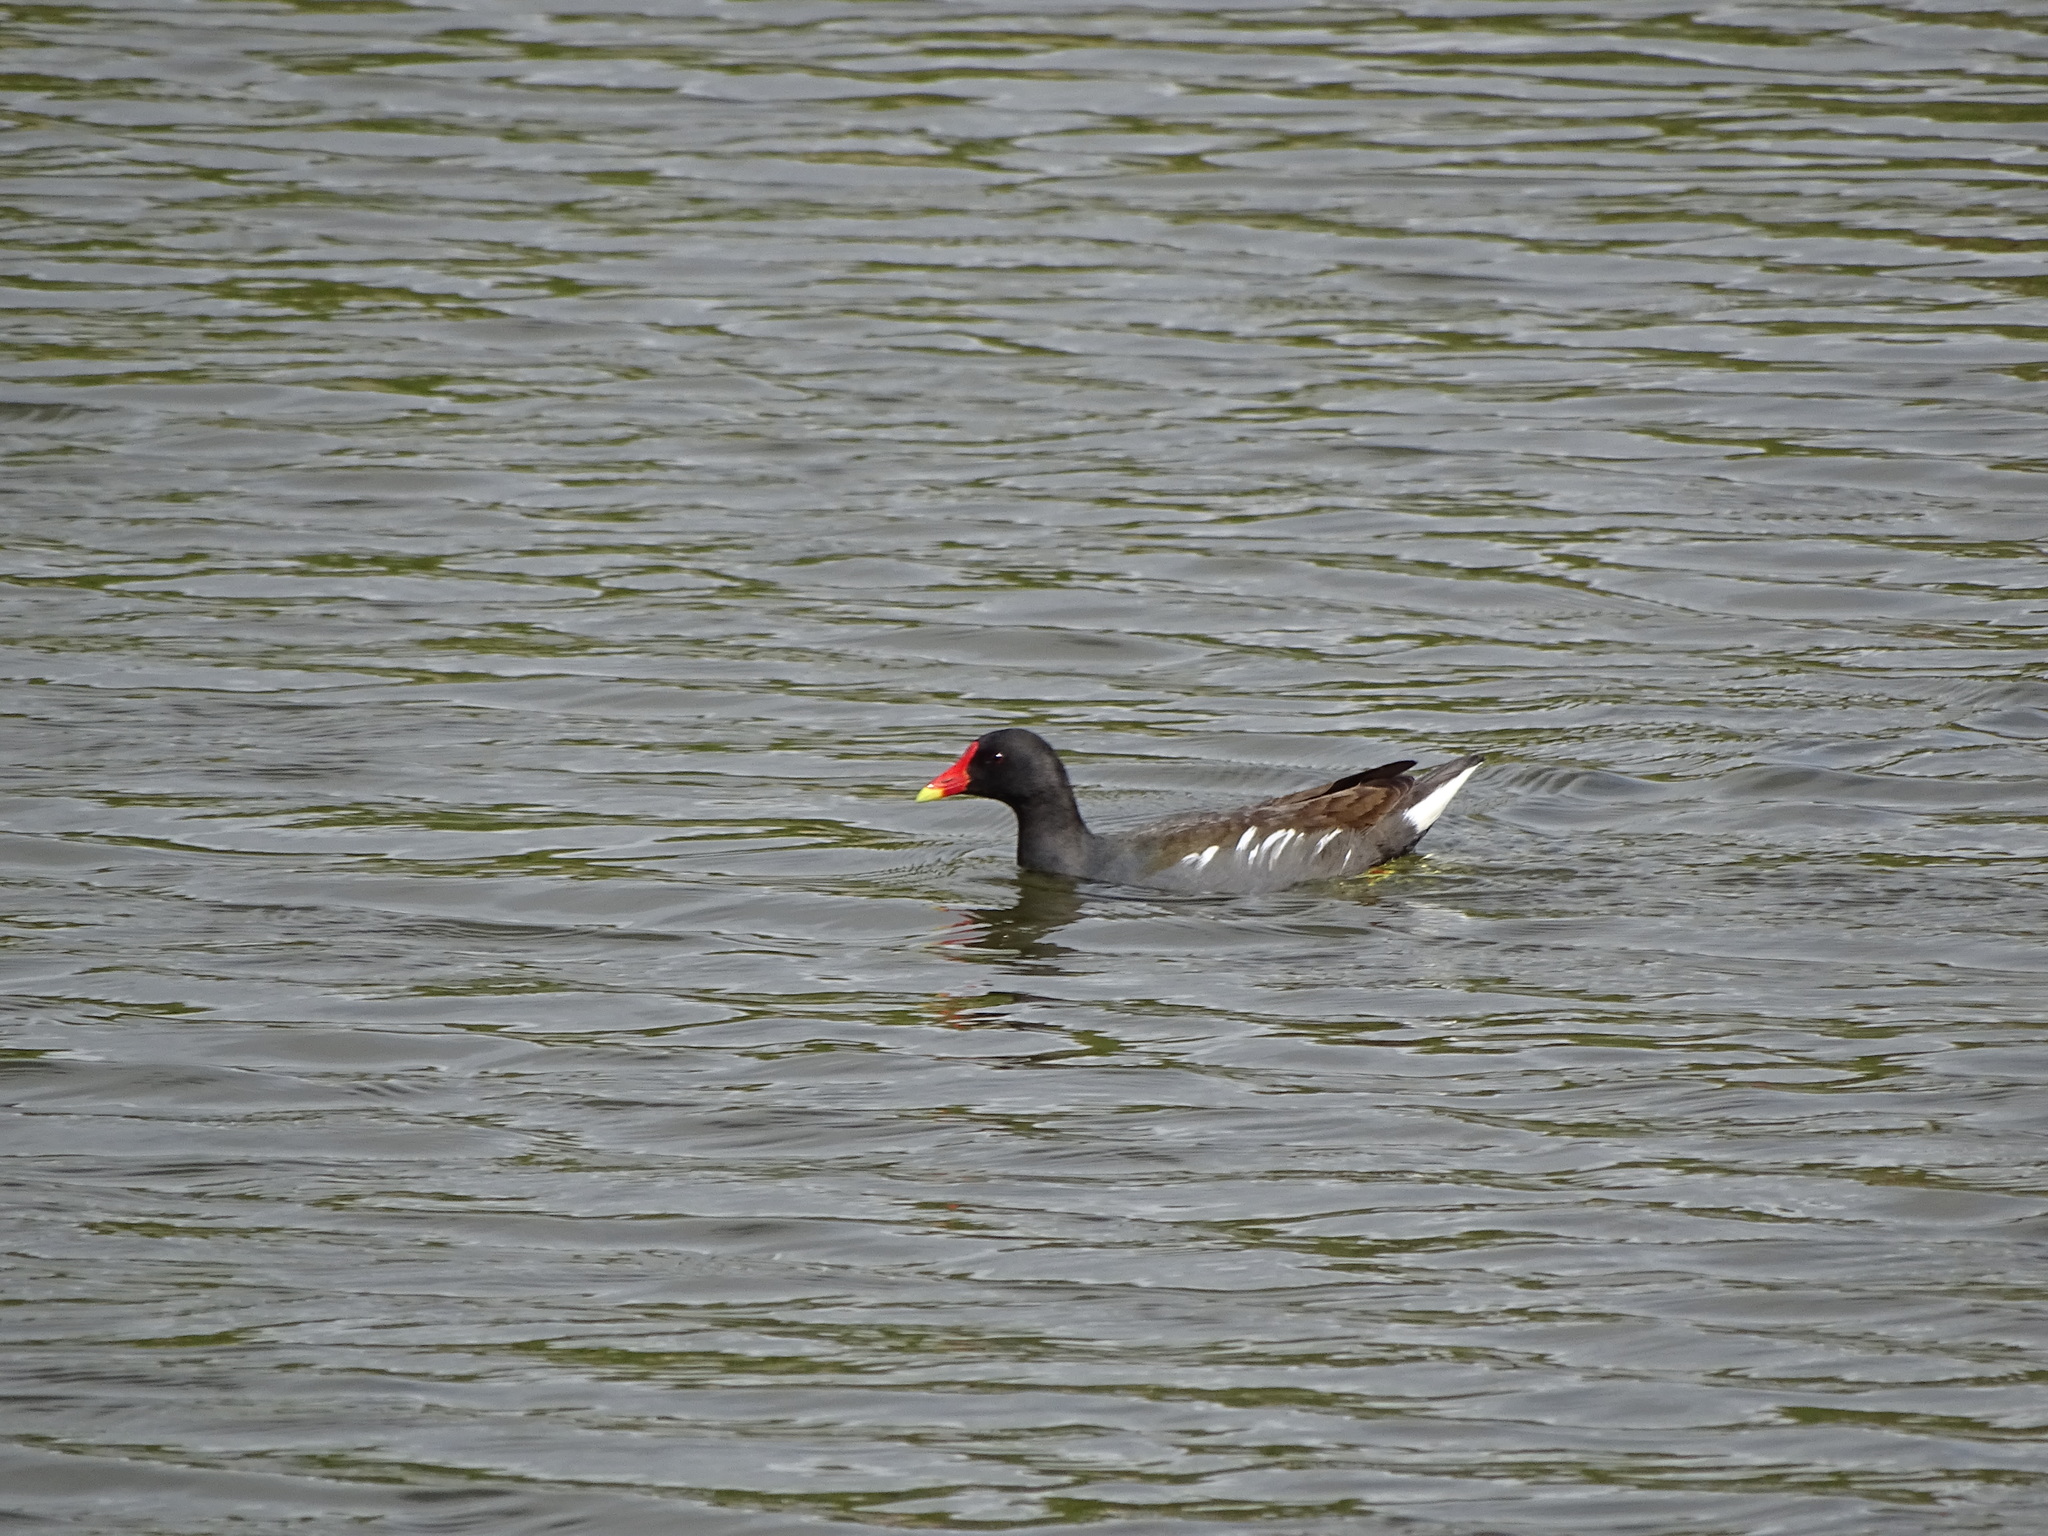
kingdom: Animalia
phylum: Chordata
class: Aves
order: Gruiformes
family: Rallidae
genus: Gallinula
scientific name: Gallinula chloropus
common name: Common moorhen
